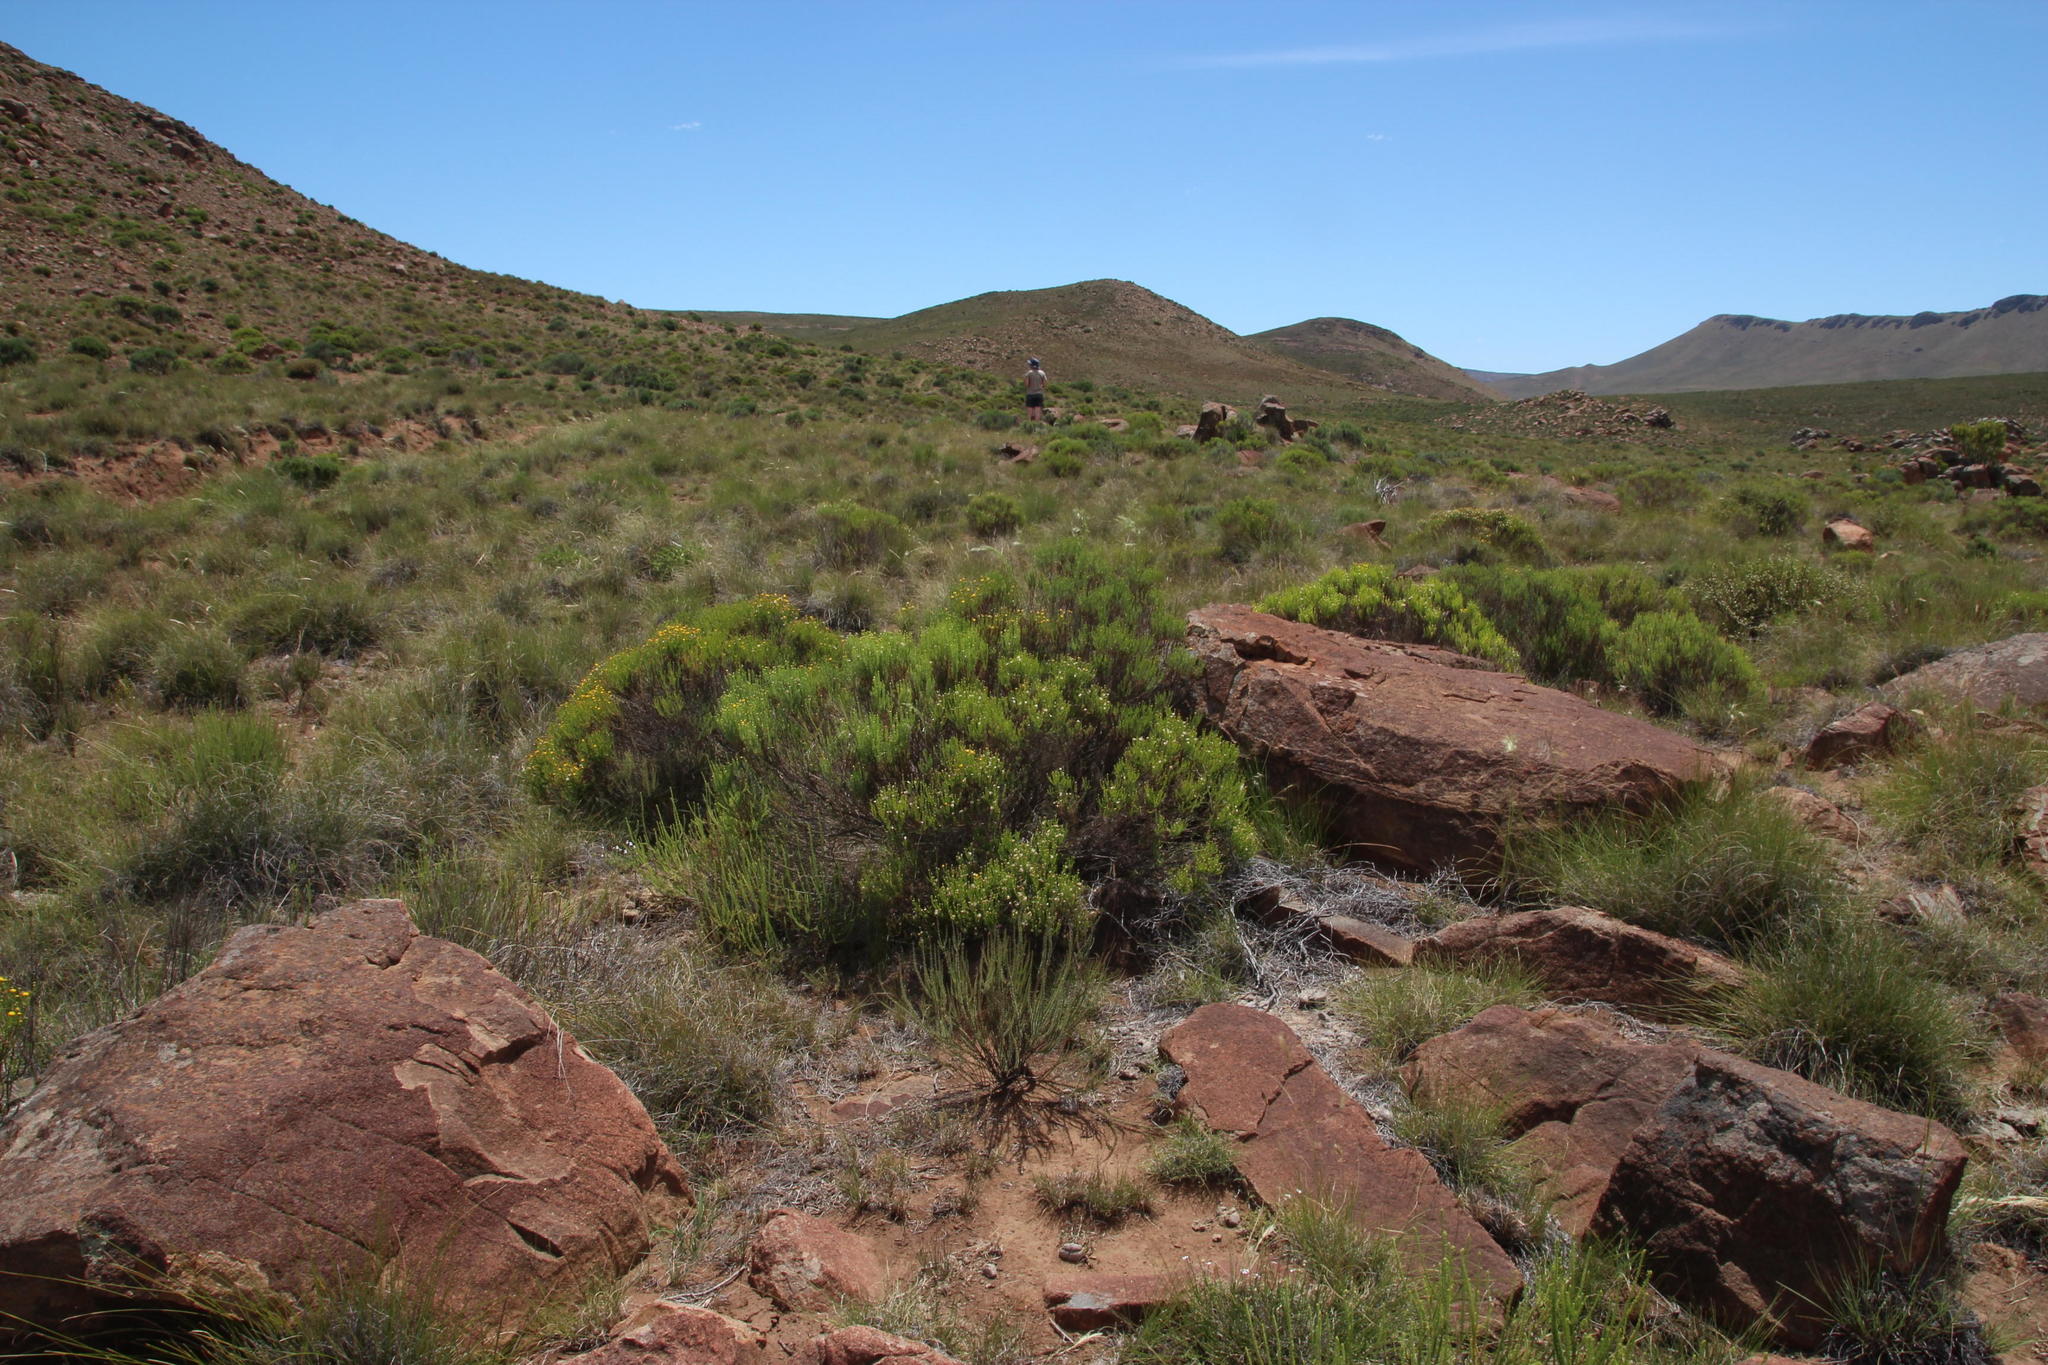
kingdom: Plantae
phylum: Tracheophyta
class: Magnoliopsida
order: Asterales
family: Asteraceae
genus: Chrysocoma
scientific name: Chrysocoma ciliata
